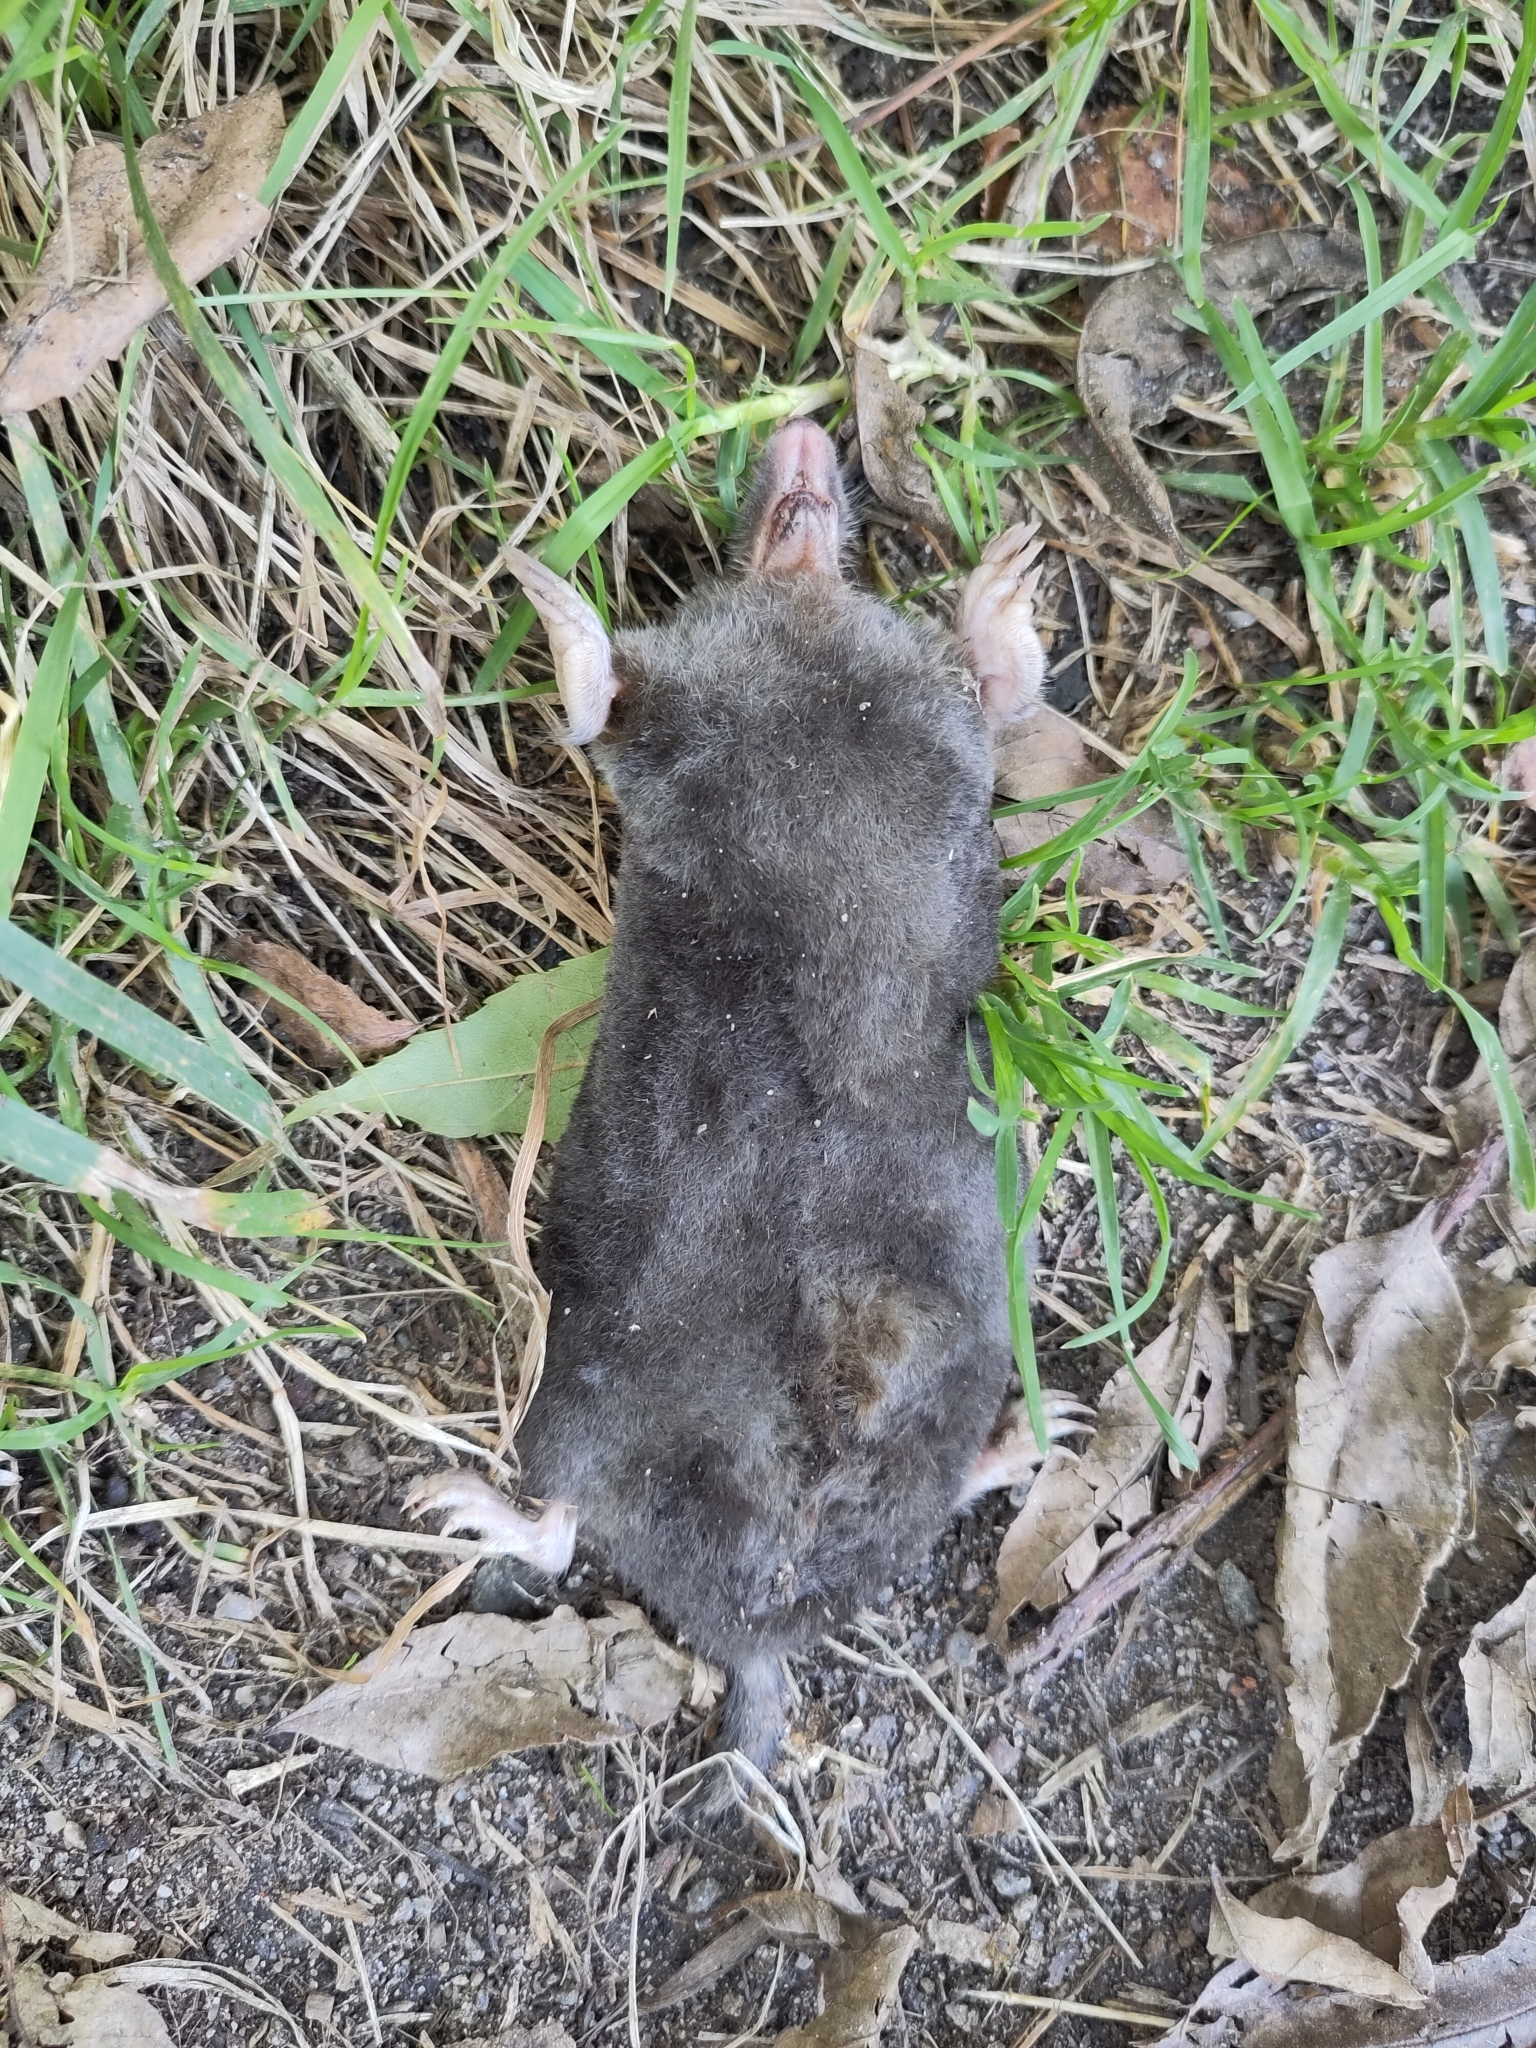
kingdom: Animalia
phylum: Chordata
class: Mammalia
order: Soricomorpha
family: Talpidae
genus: Talpa
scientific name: Talpa europaea
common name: European mole
